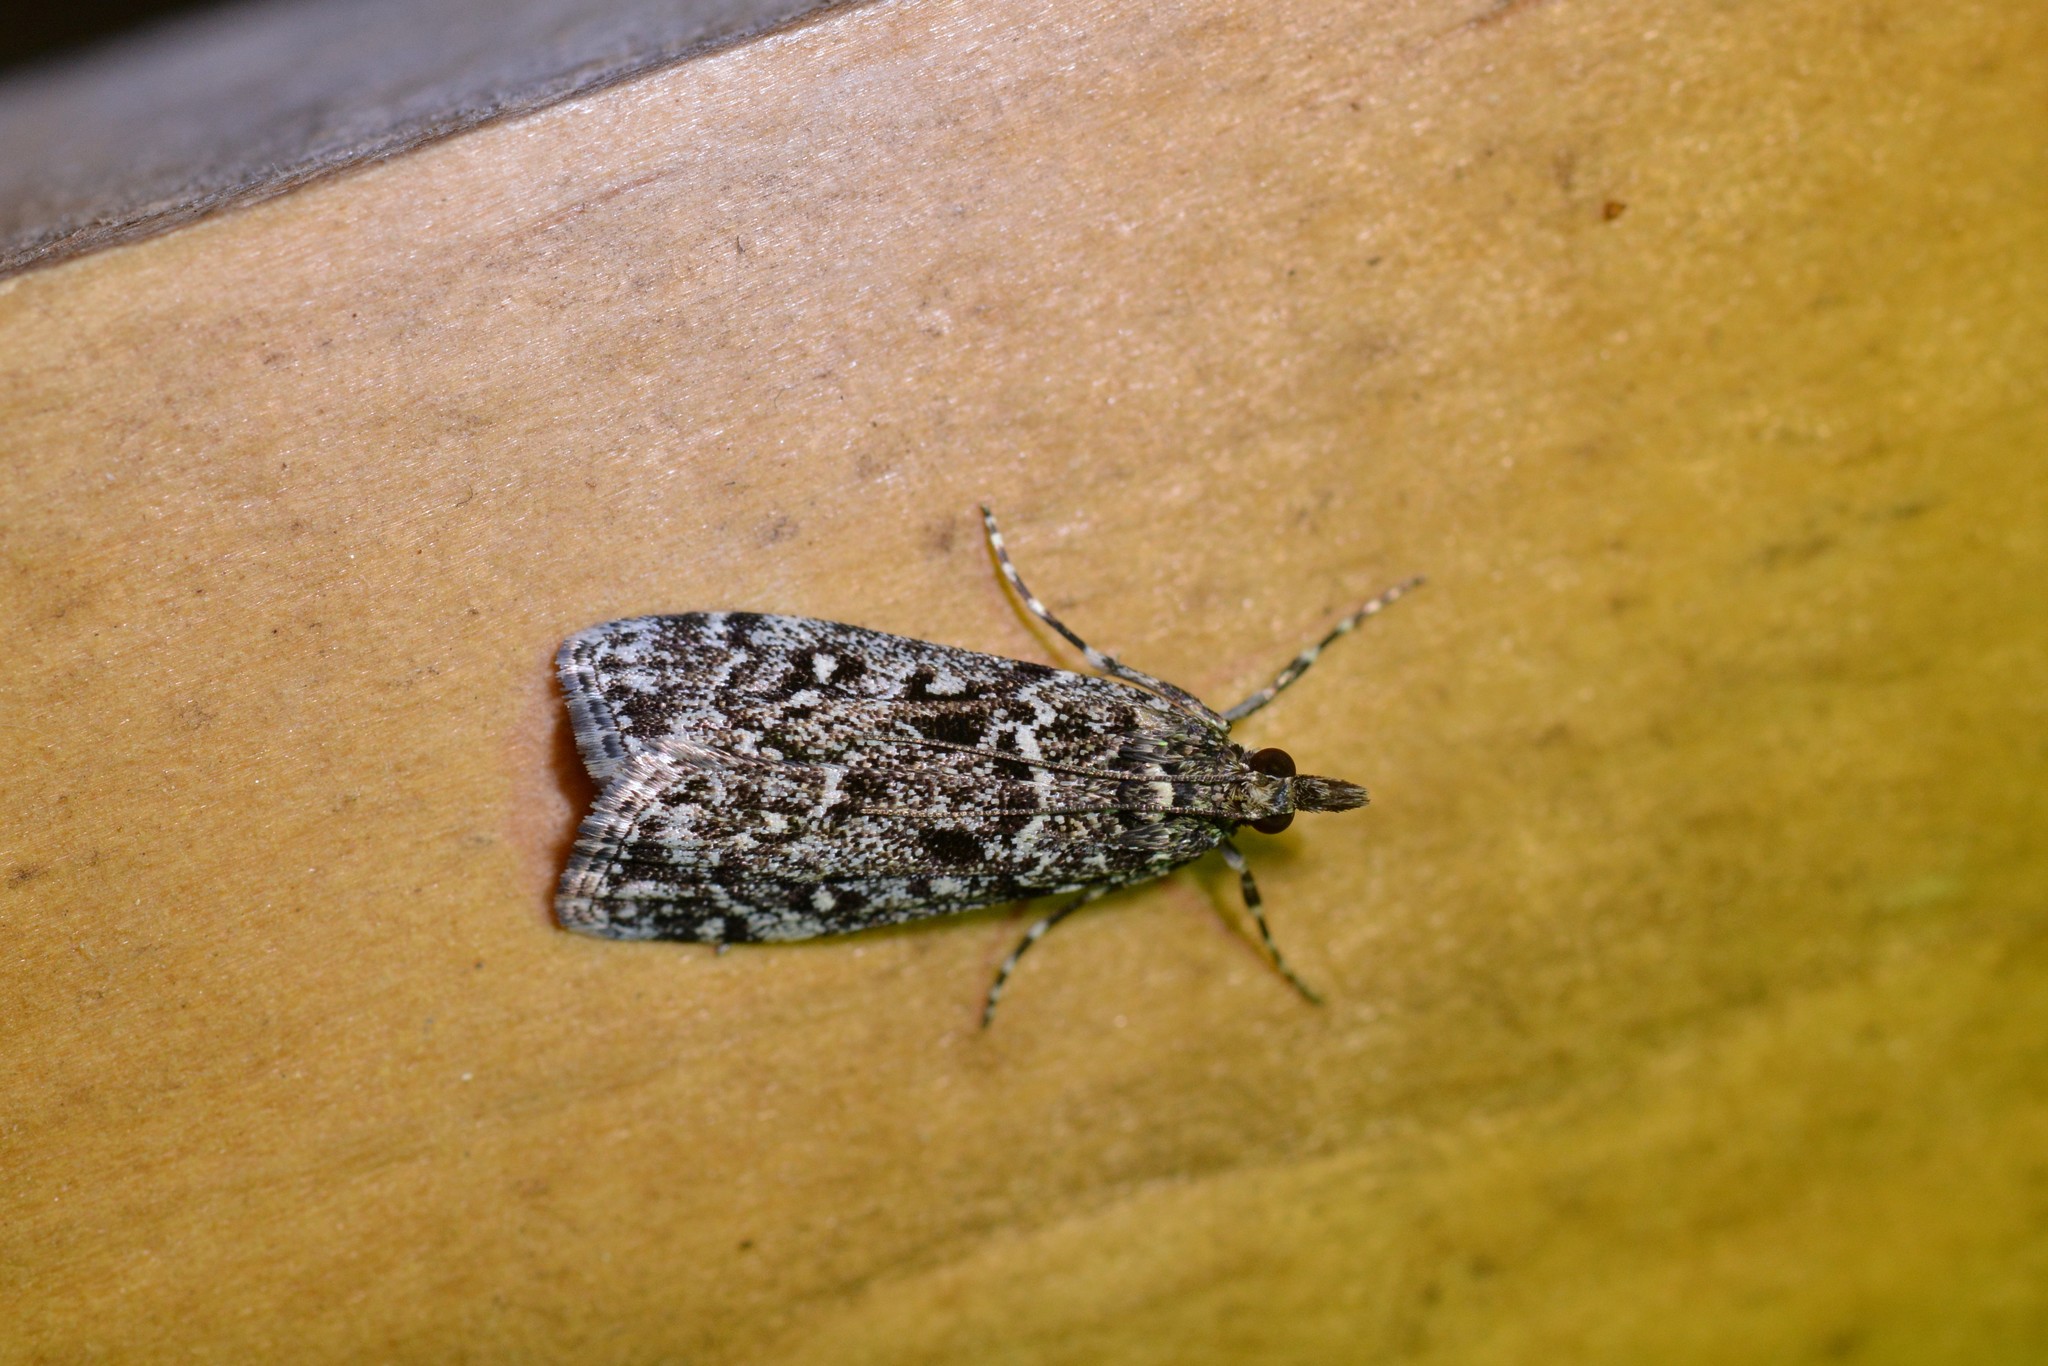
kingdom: Animalia
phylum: Arthropoda
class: Insecta
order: Lepidoptera
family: Crambidae
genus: Eudonia
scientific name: Eudonia philerga
